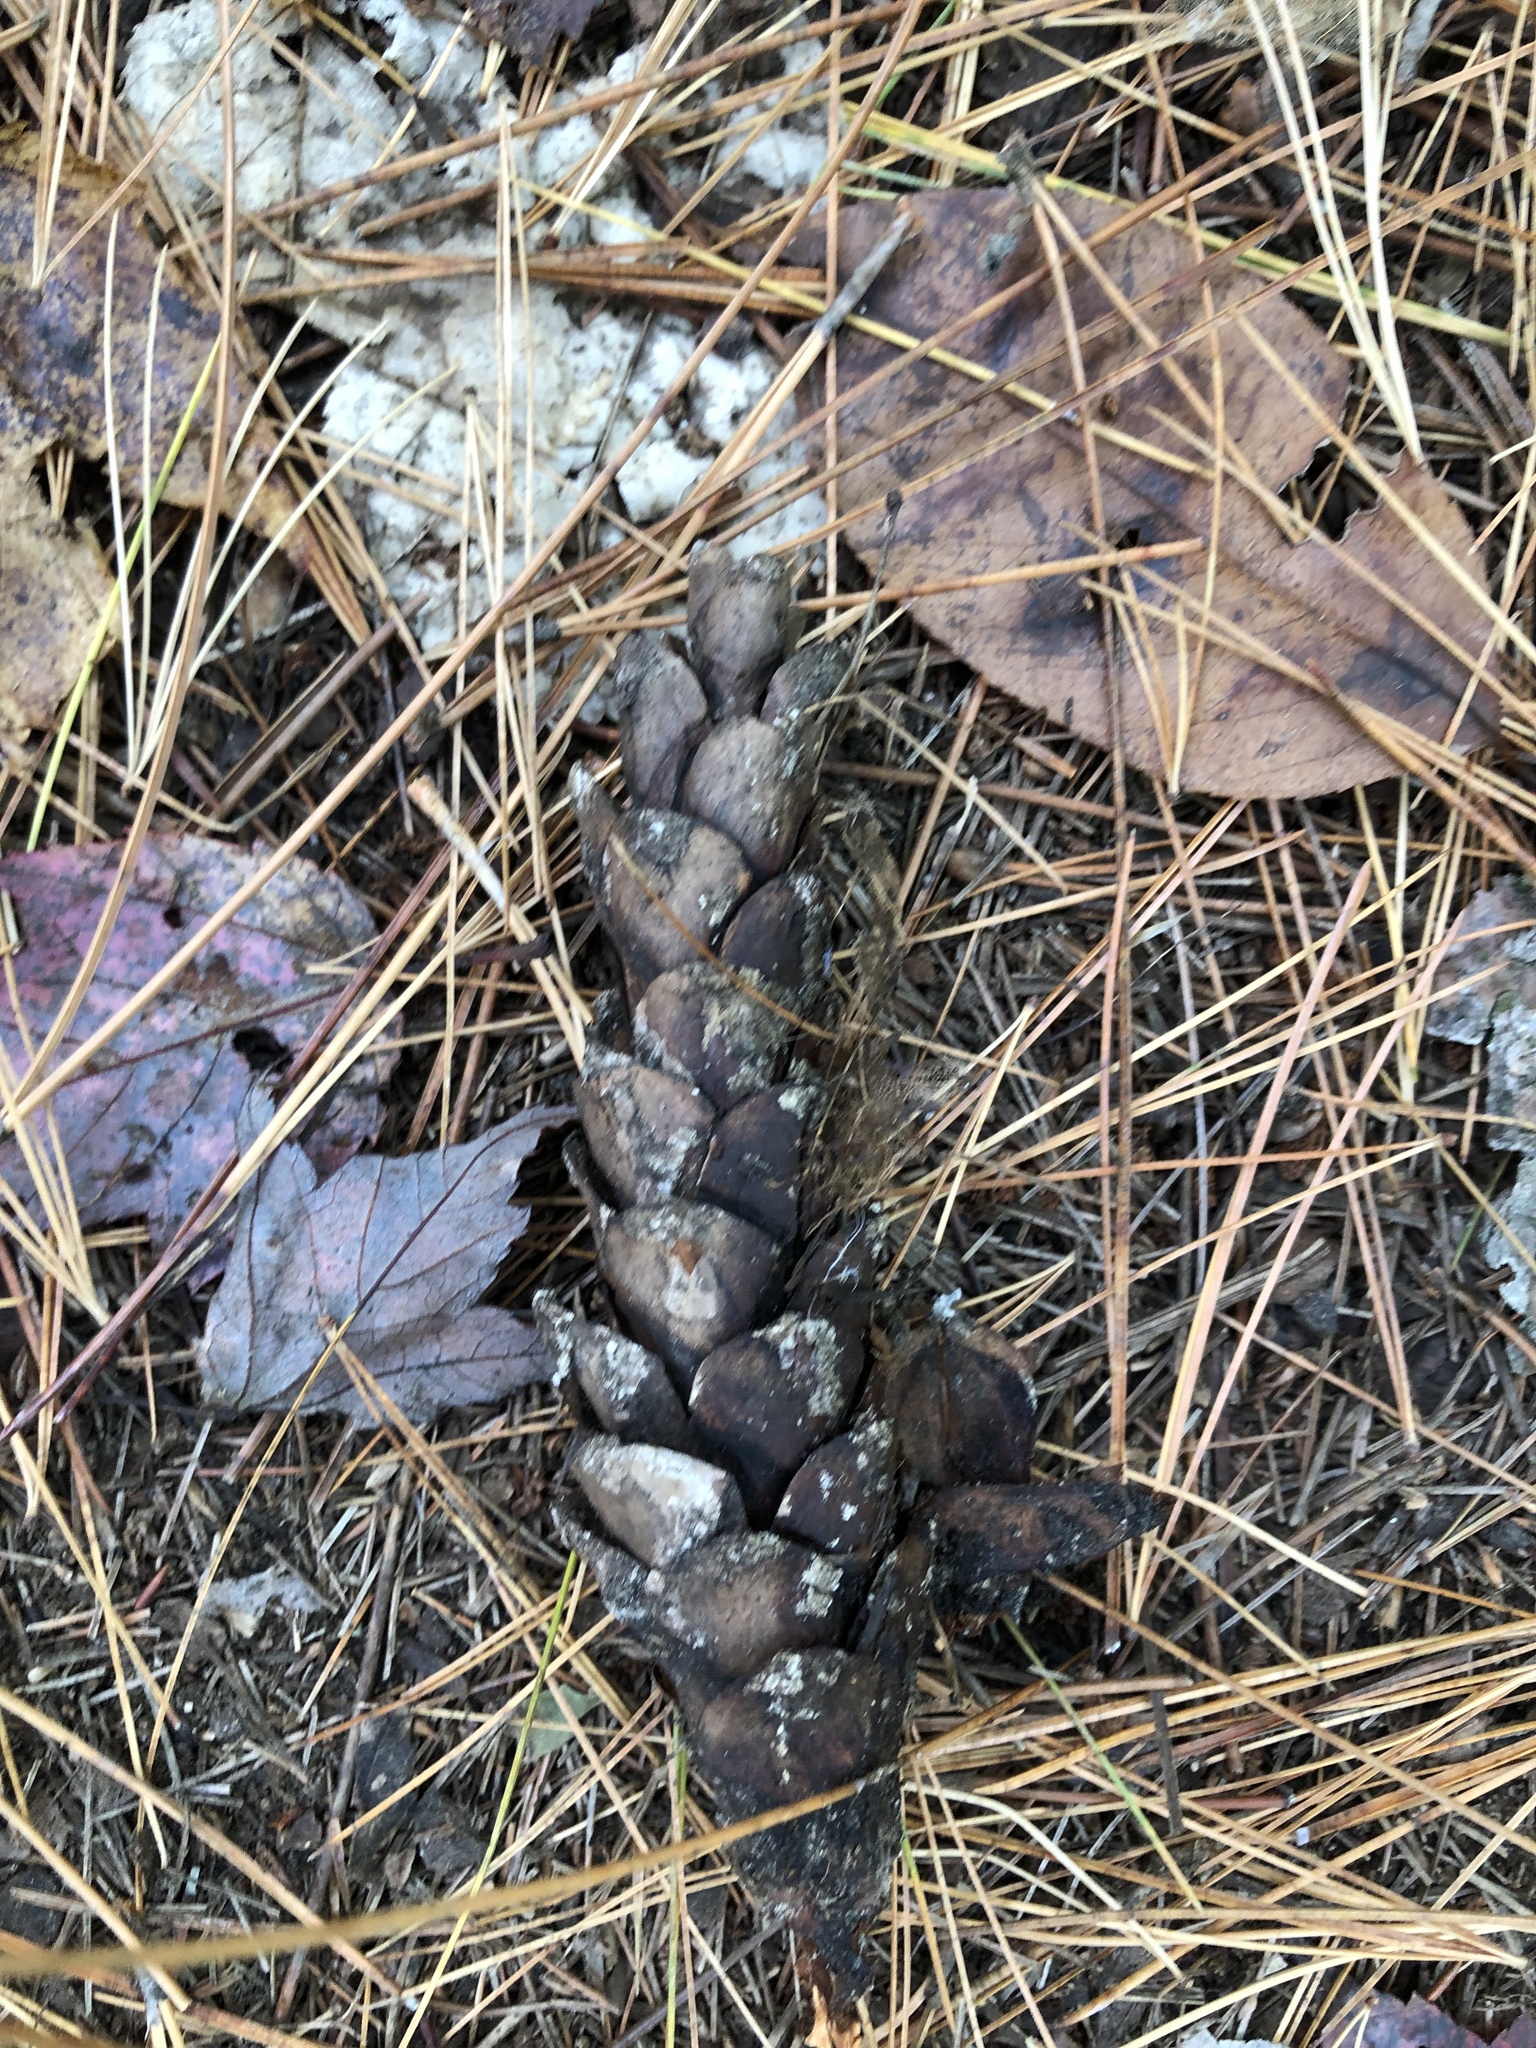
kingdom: Plantae
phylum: Tracheophyta
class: Pinopsida
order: Pinales
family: Pinaceae
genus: Pinus
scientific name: Pinus strobus
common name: Weymouth pine
